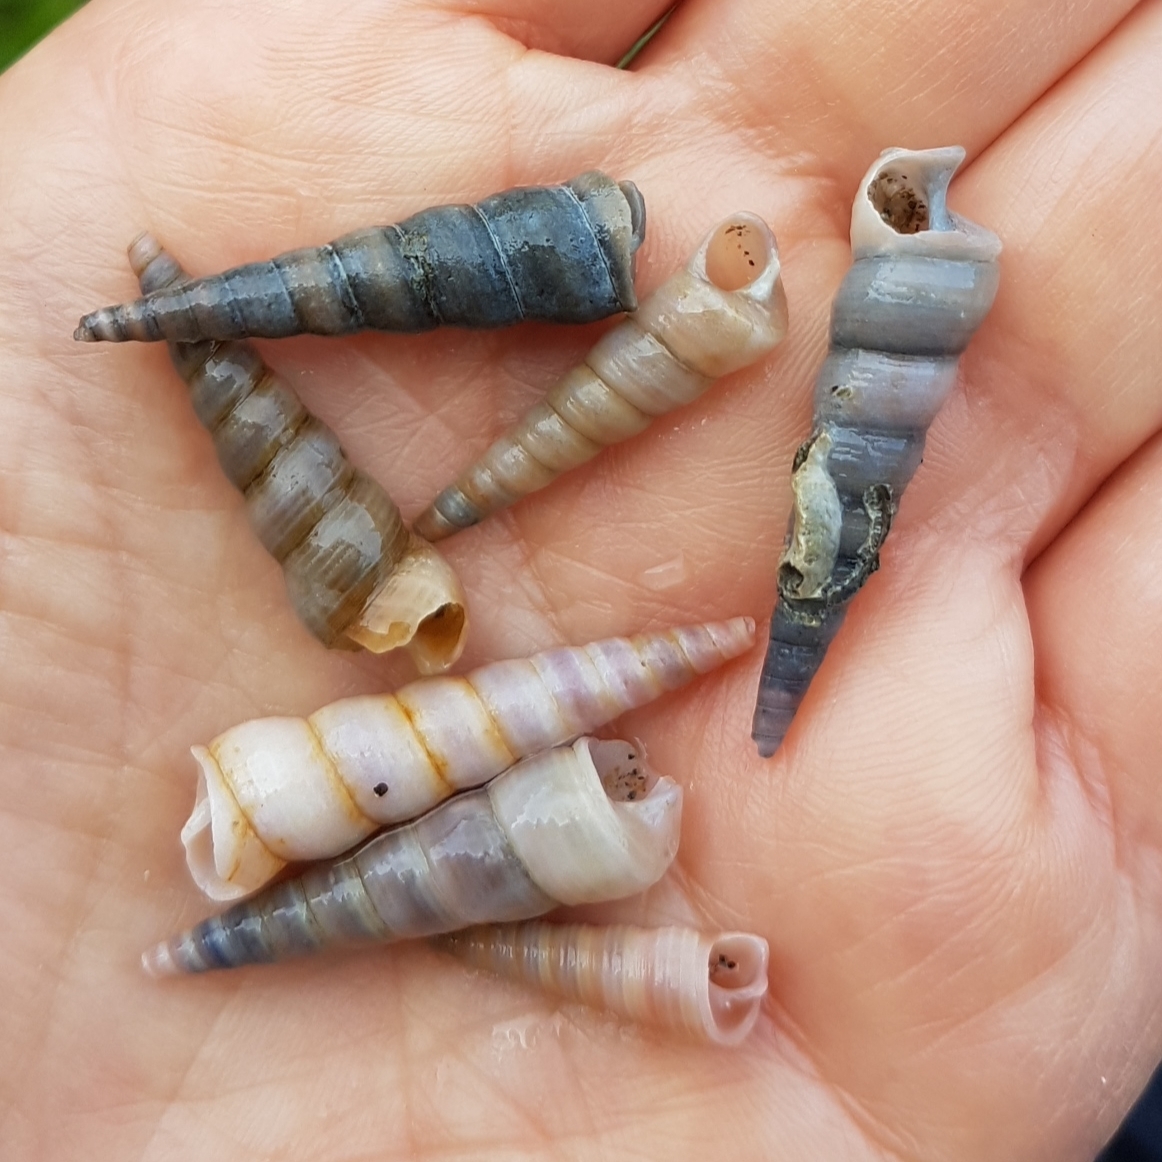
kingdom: Animalia
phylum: Mollusca
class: Gastropoda
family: Turritellidae
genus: Turritellinella
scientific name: Turritellinella tricarinata
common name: Auger shell
